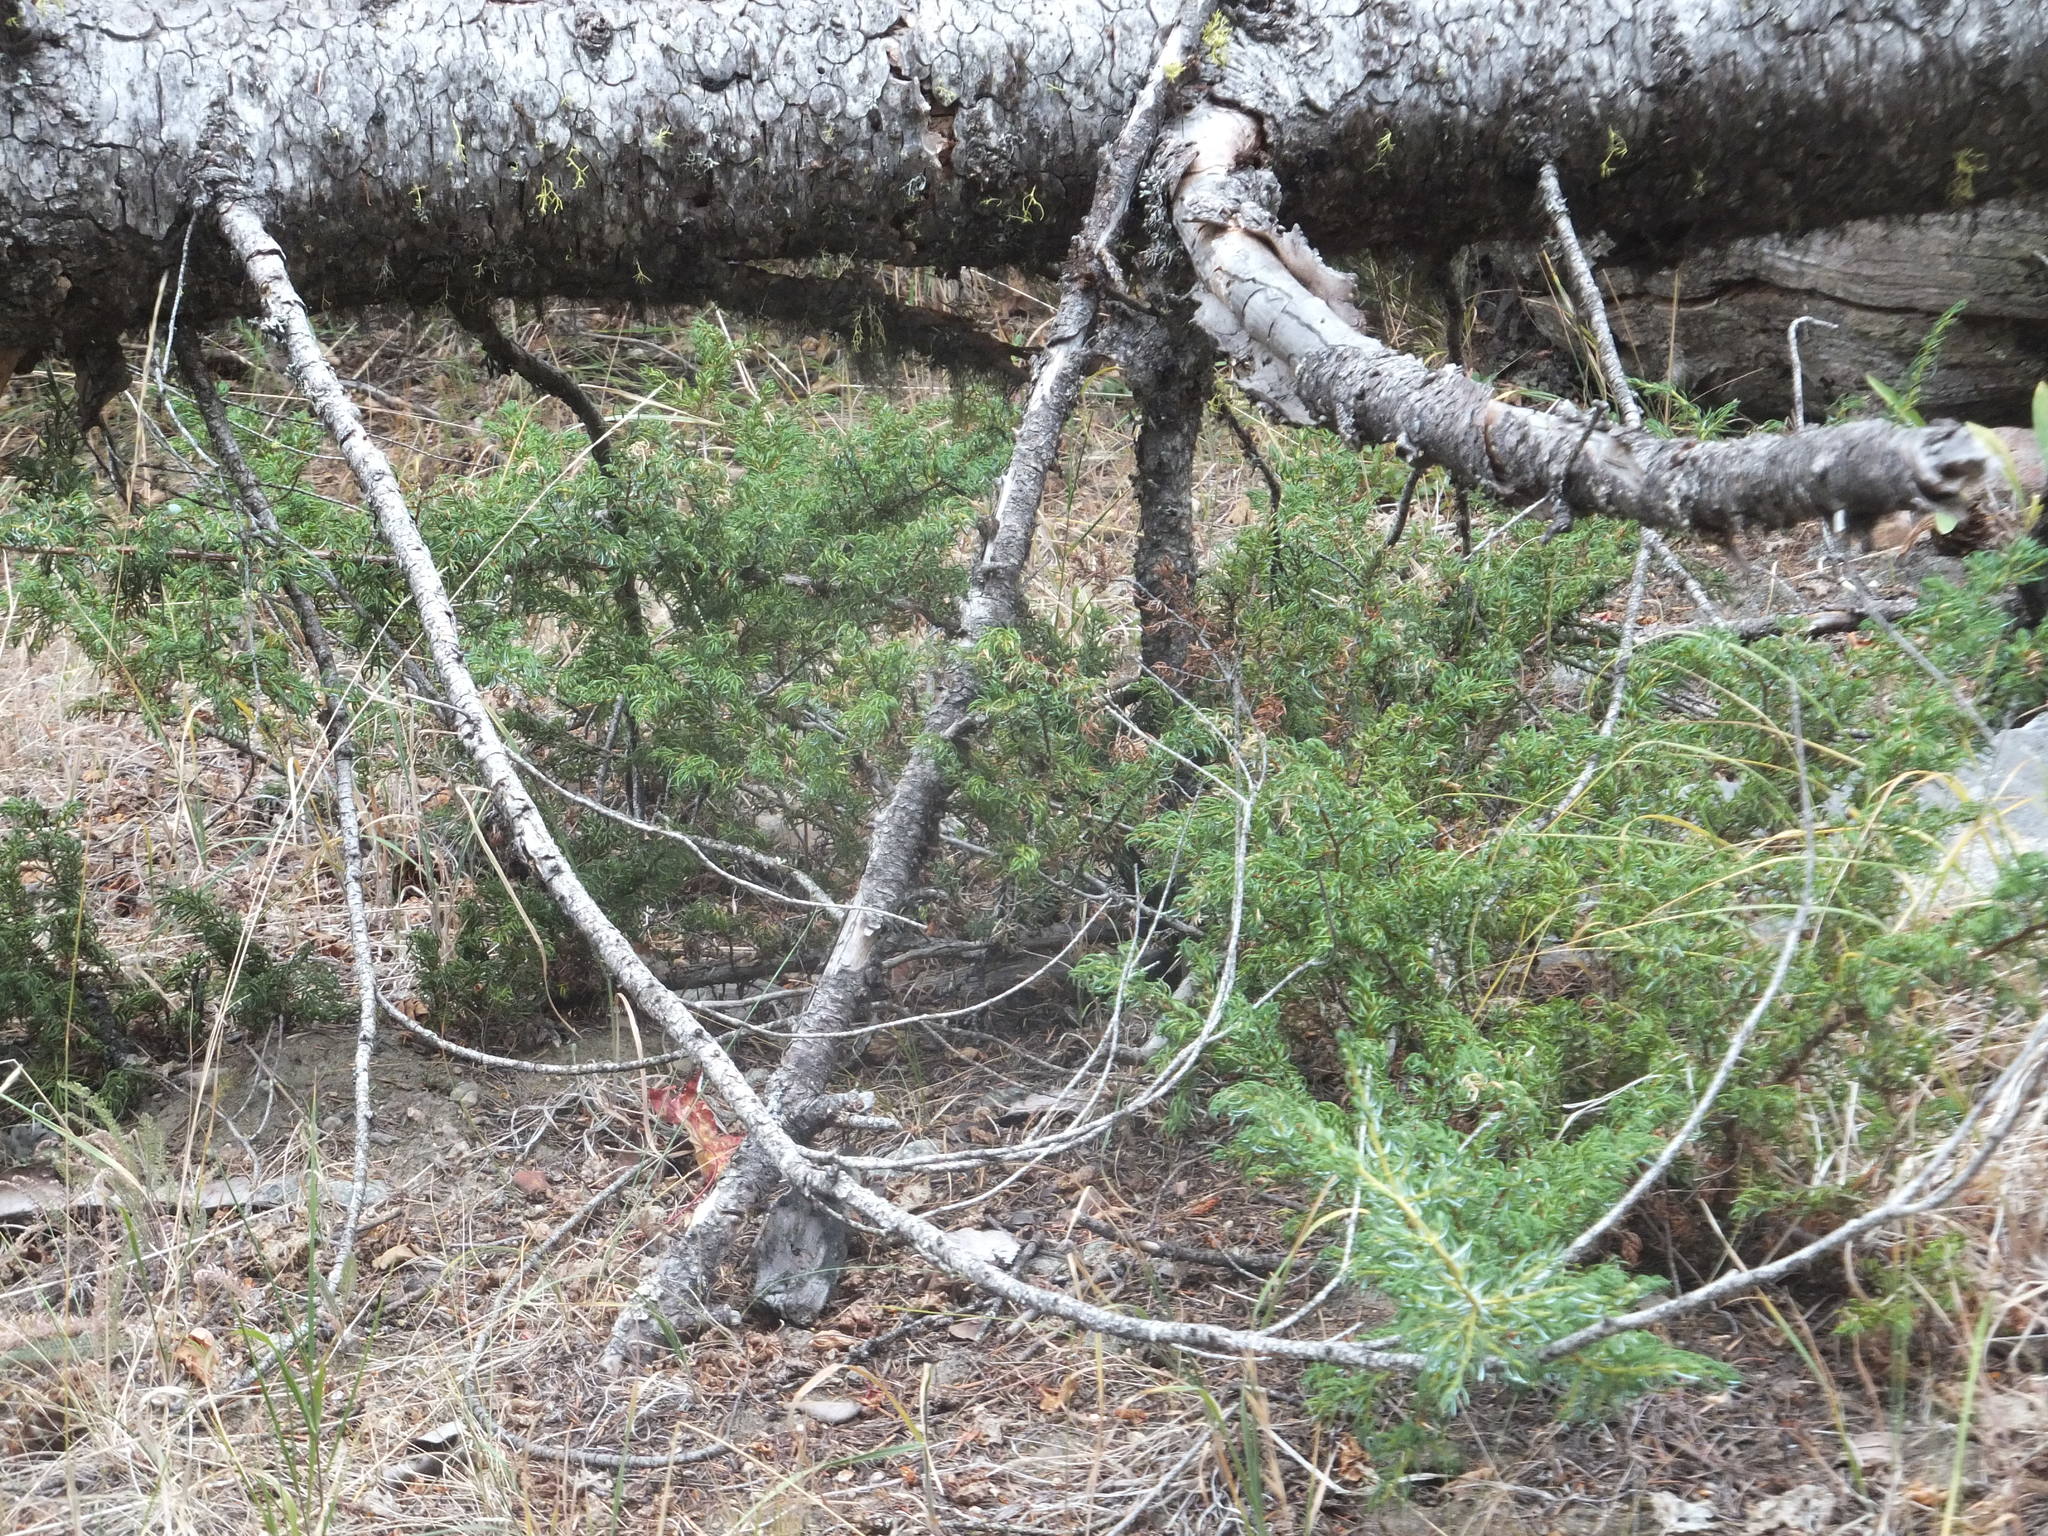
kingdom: Plantae
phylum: Tracheophyta
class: Pinopsida
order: Pinales
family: Cupressaceae
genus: Juniperus
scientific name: Juniperus communis
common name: Common juniper
